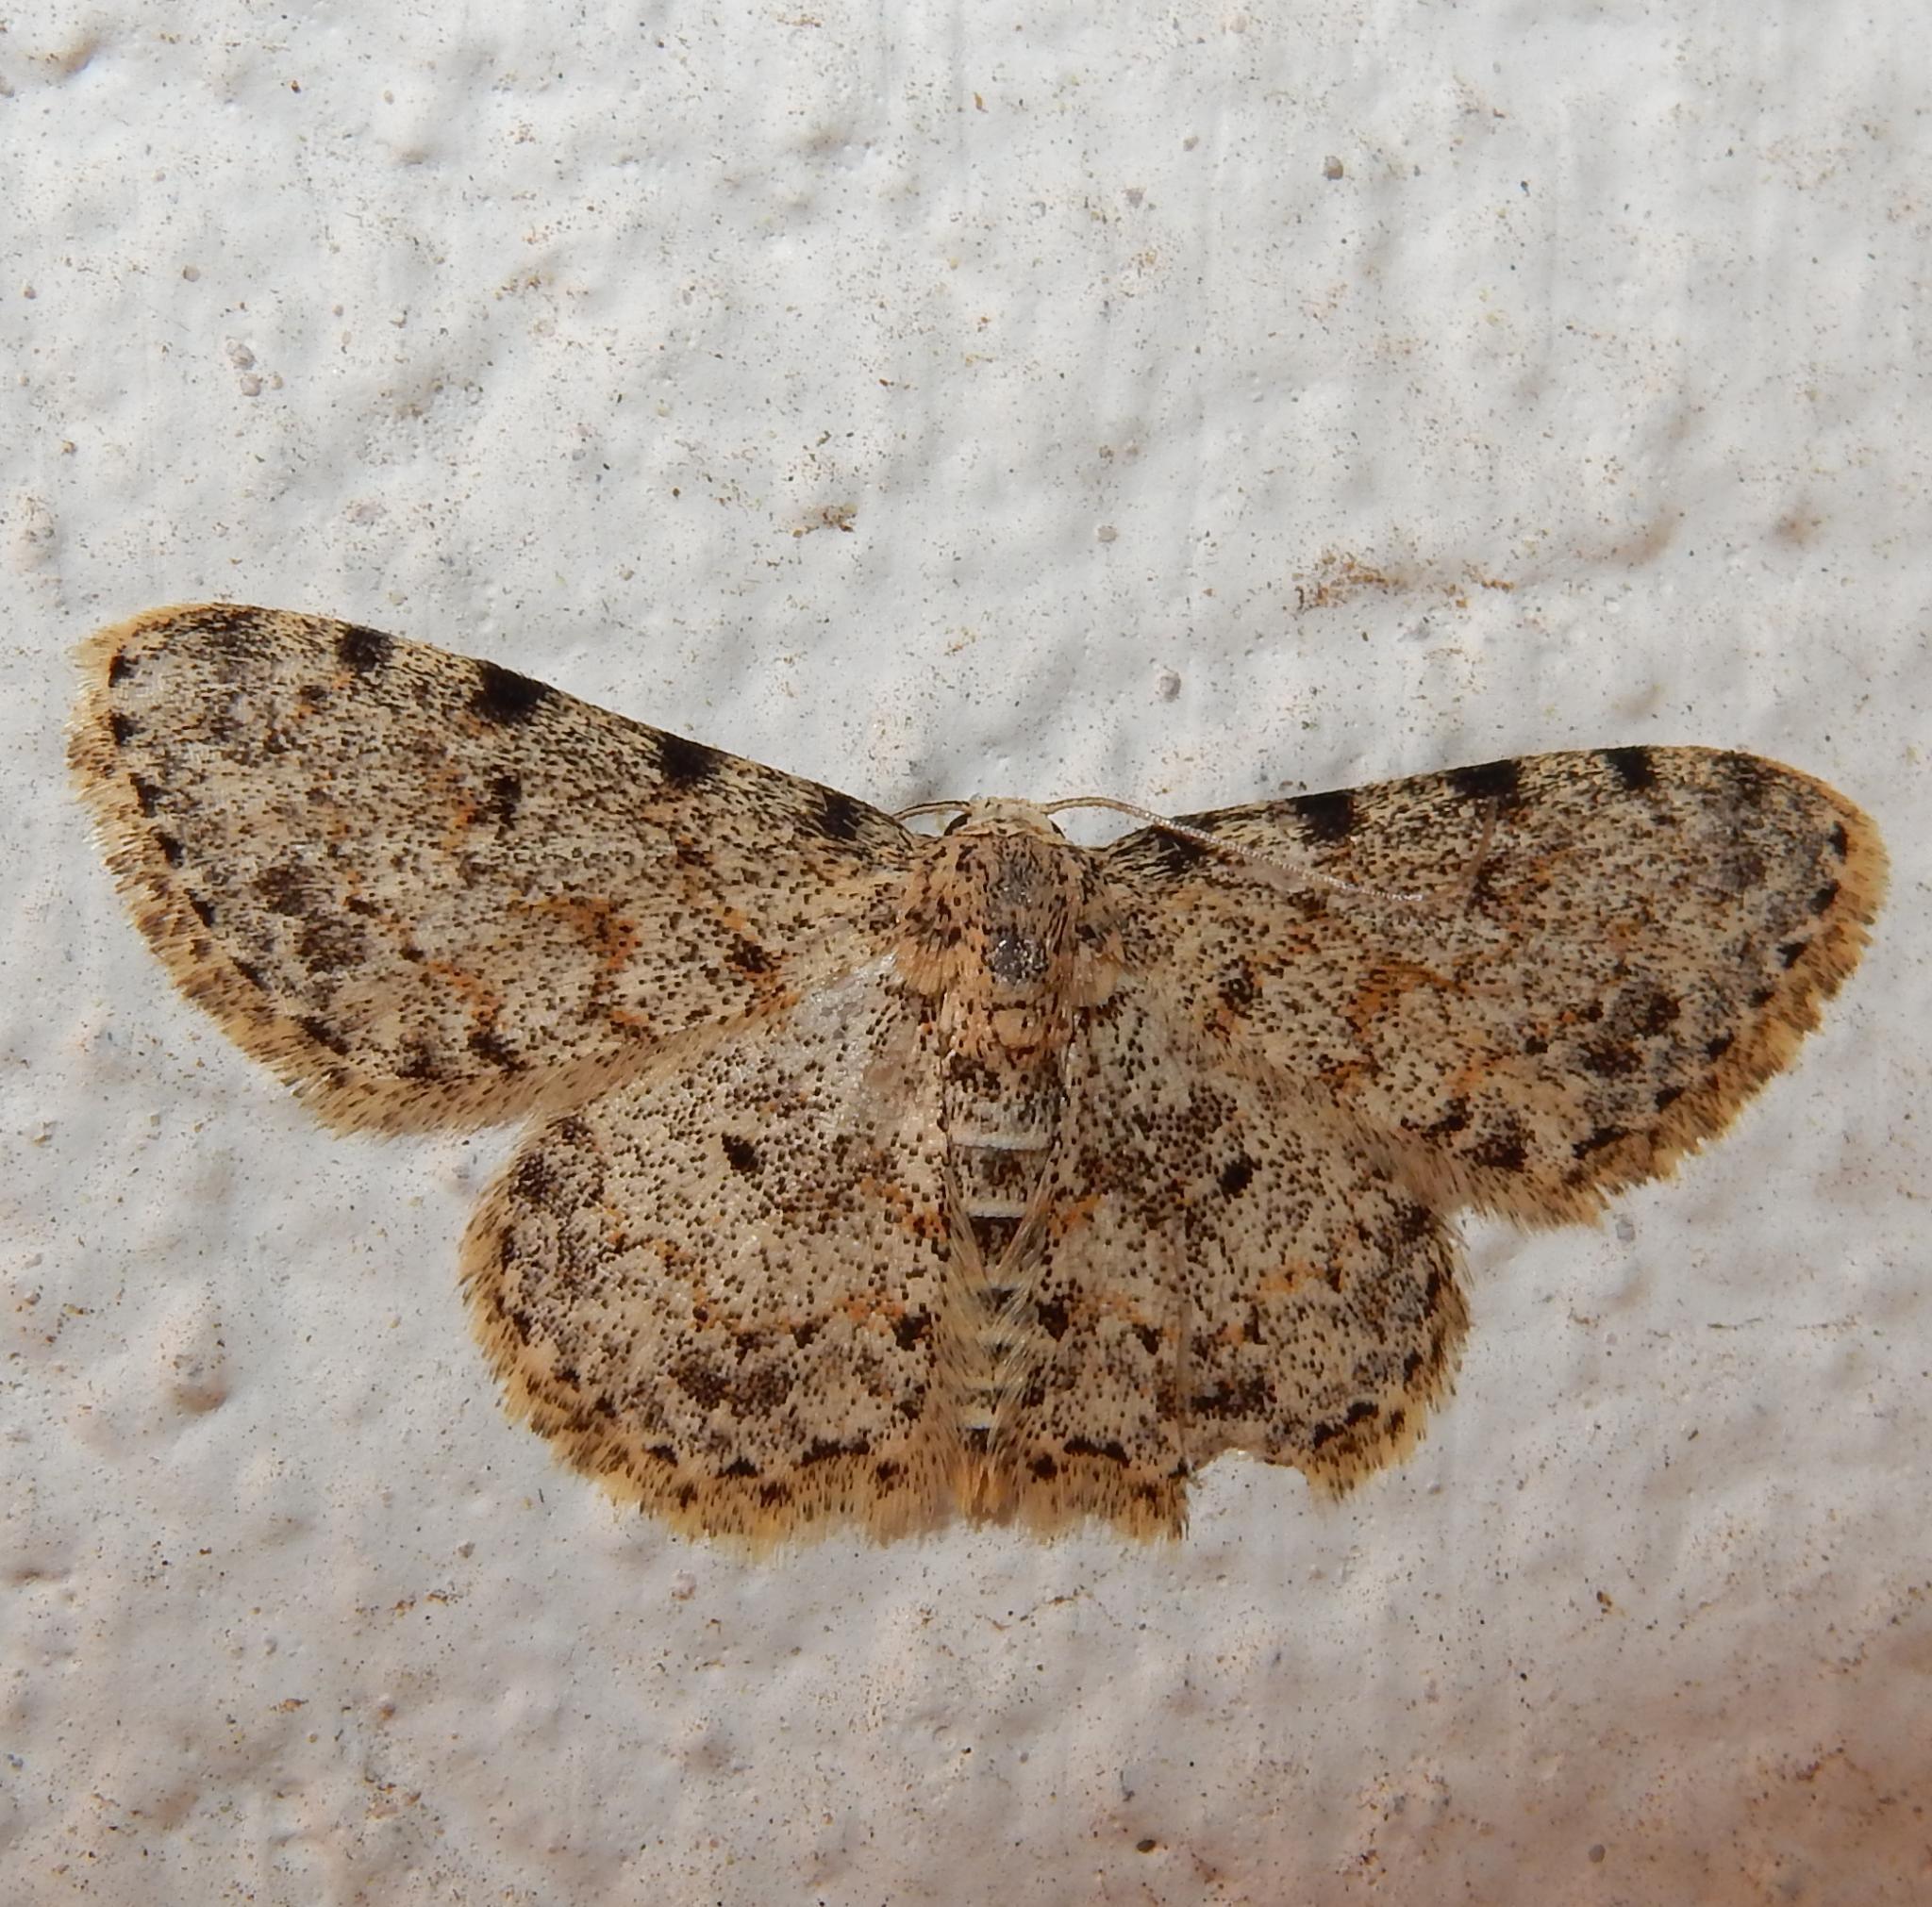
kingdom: Animalia
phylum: Arthropoda
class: Insecta
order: Lepidoptera
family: Geometridae
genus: Scopula
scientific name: Scopula nigrinotata
